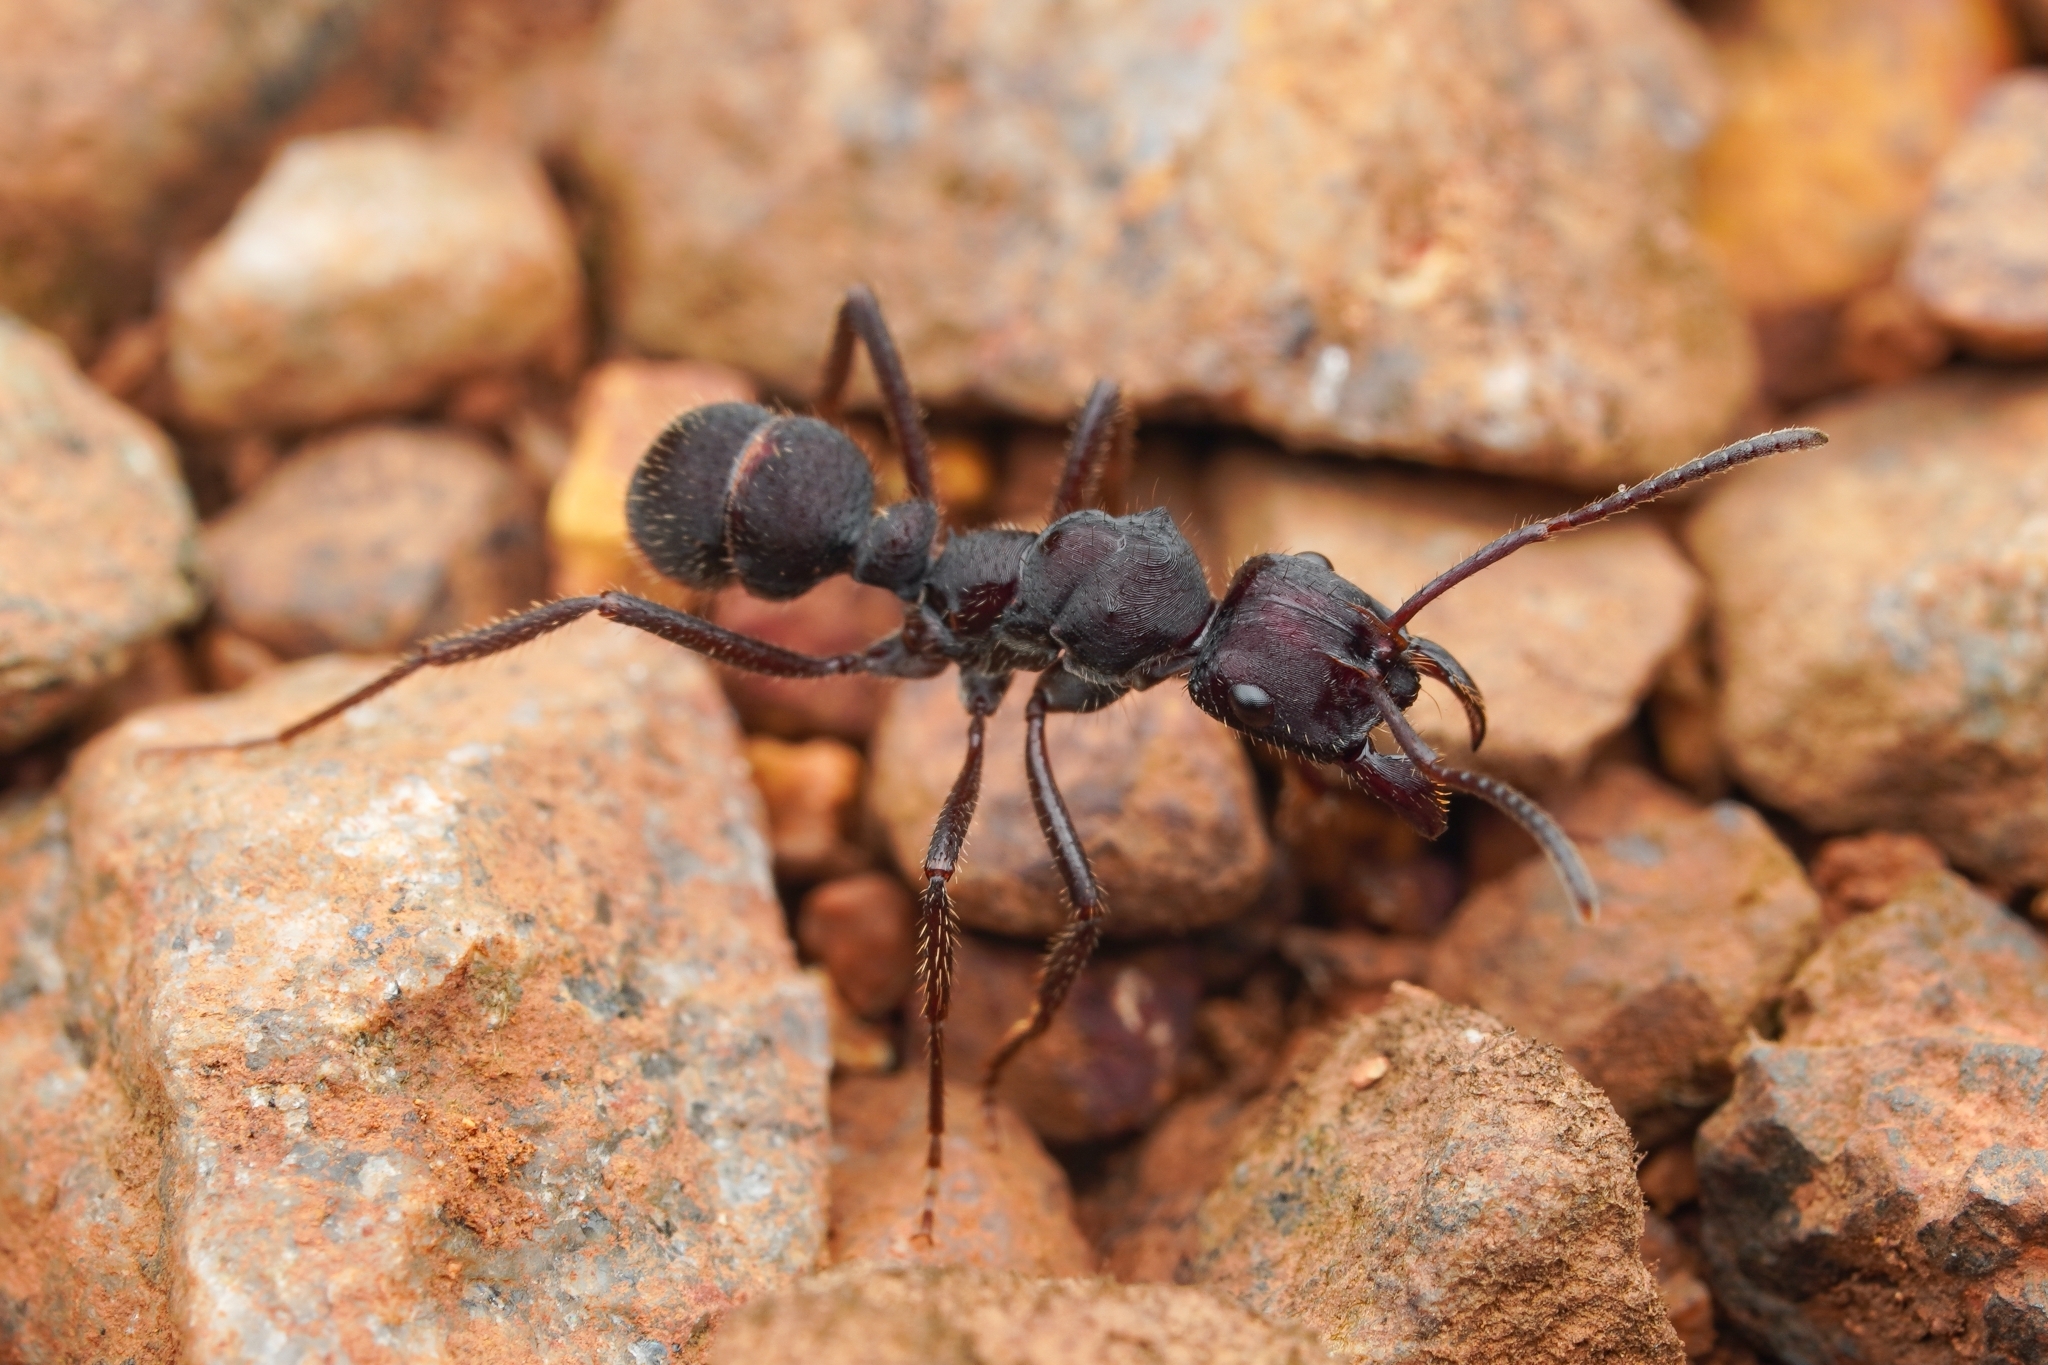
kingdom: Animalia
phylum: Arthropoda
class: Insecta
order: Hymenoptera
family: Formicidae
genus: Ectatomma
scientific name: Ectatomma brunneum
